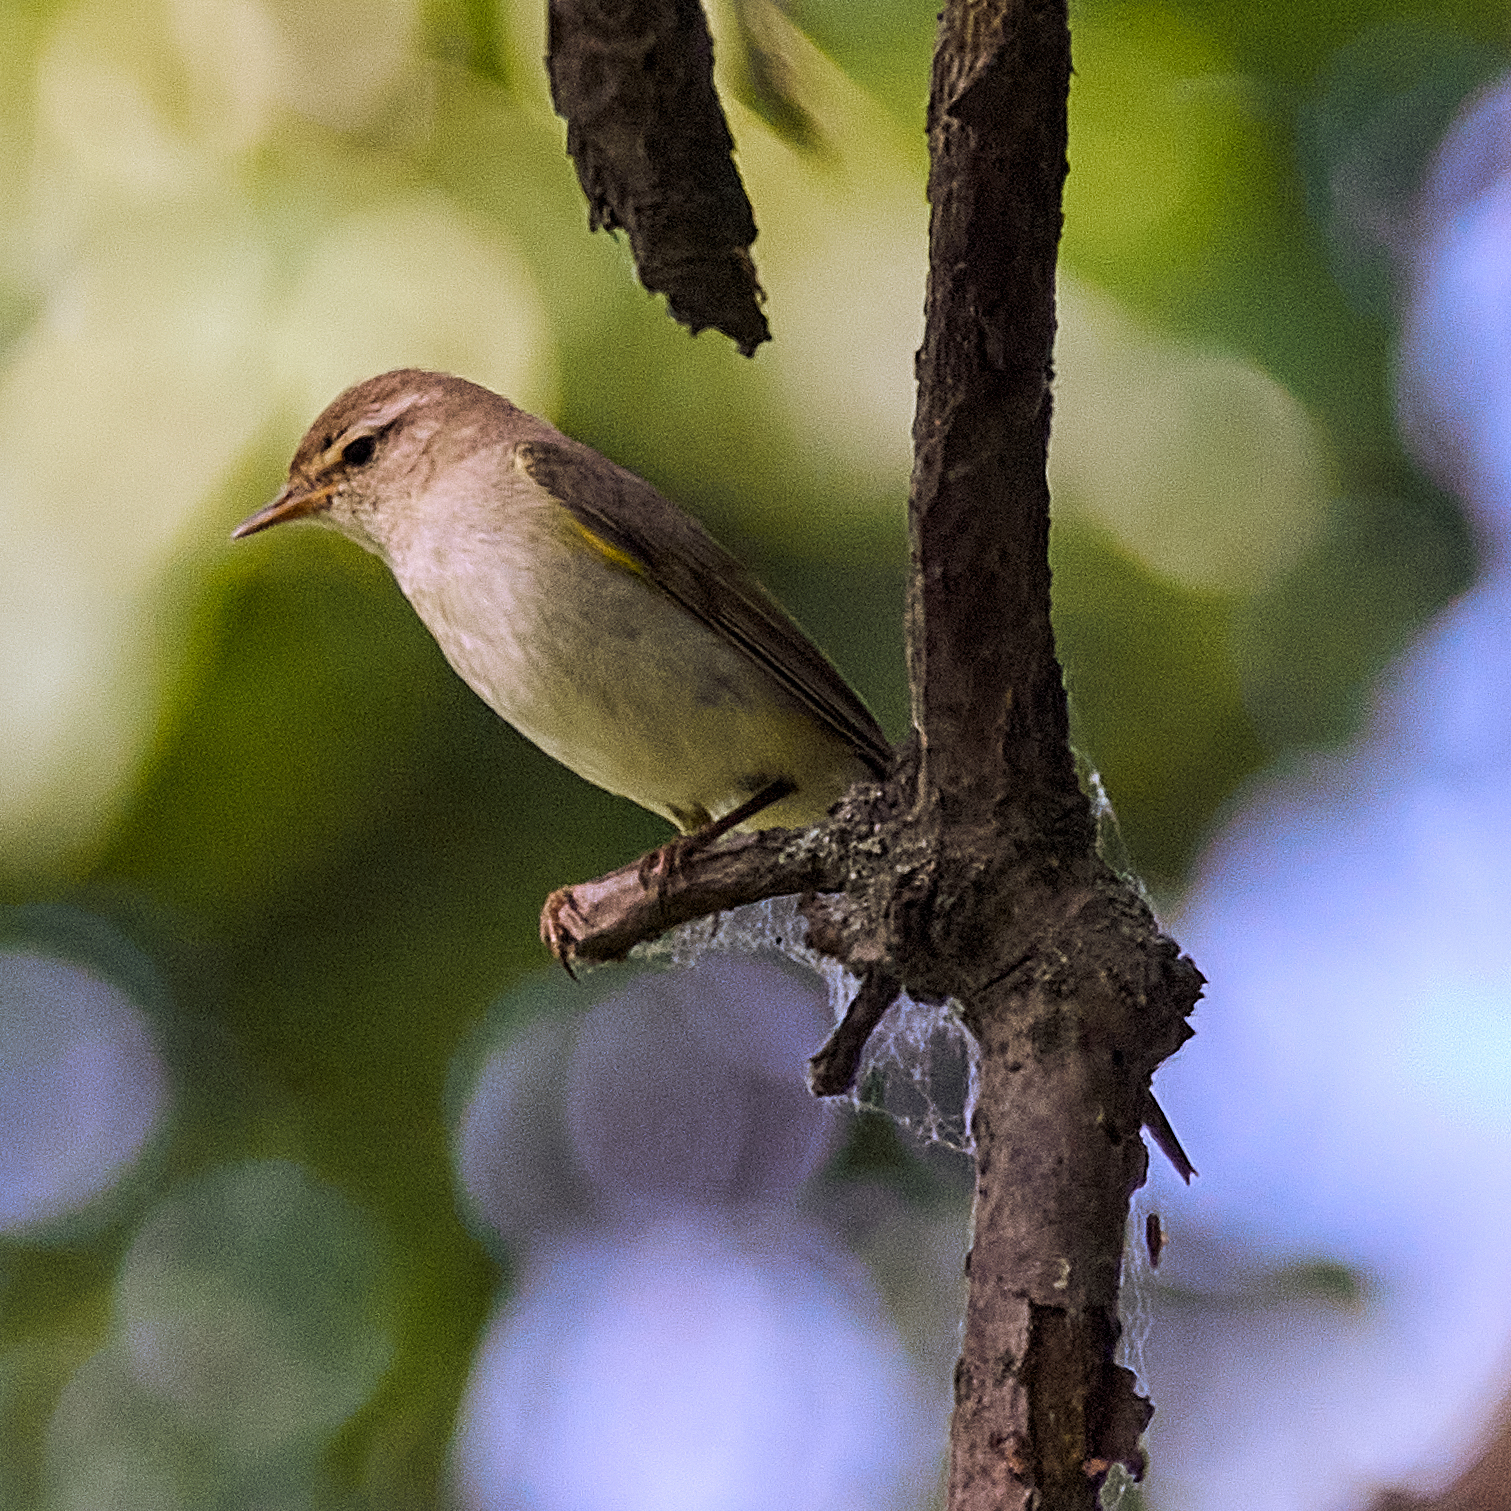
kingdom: Animalia
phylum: Chordata
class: Aves
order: Passeriformes
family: Phylloscopidae
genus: Phylloscopus
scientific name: Phylloscopus collybita
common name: Common chiffchaff
